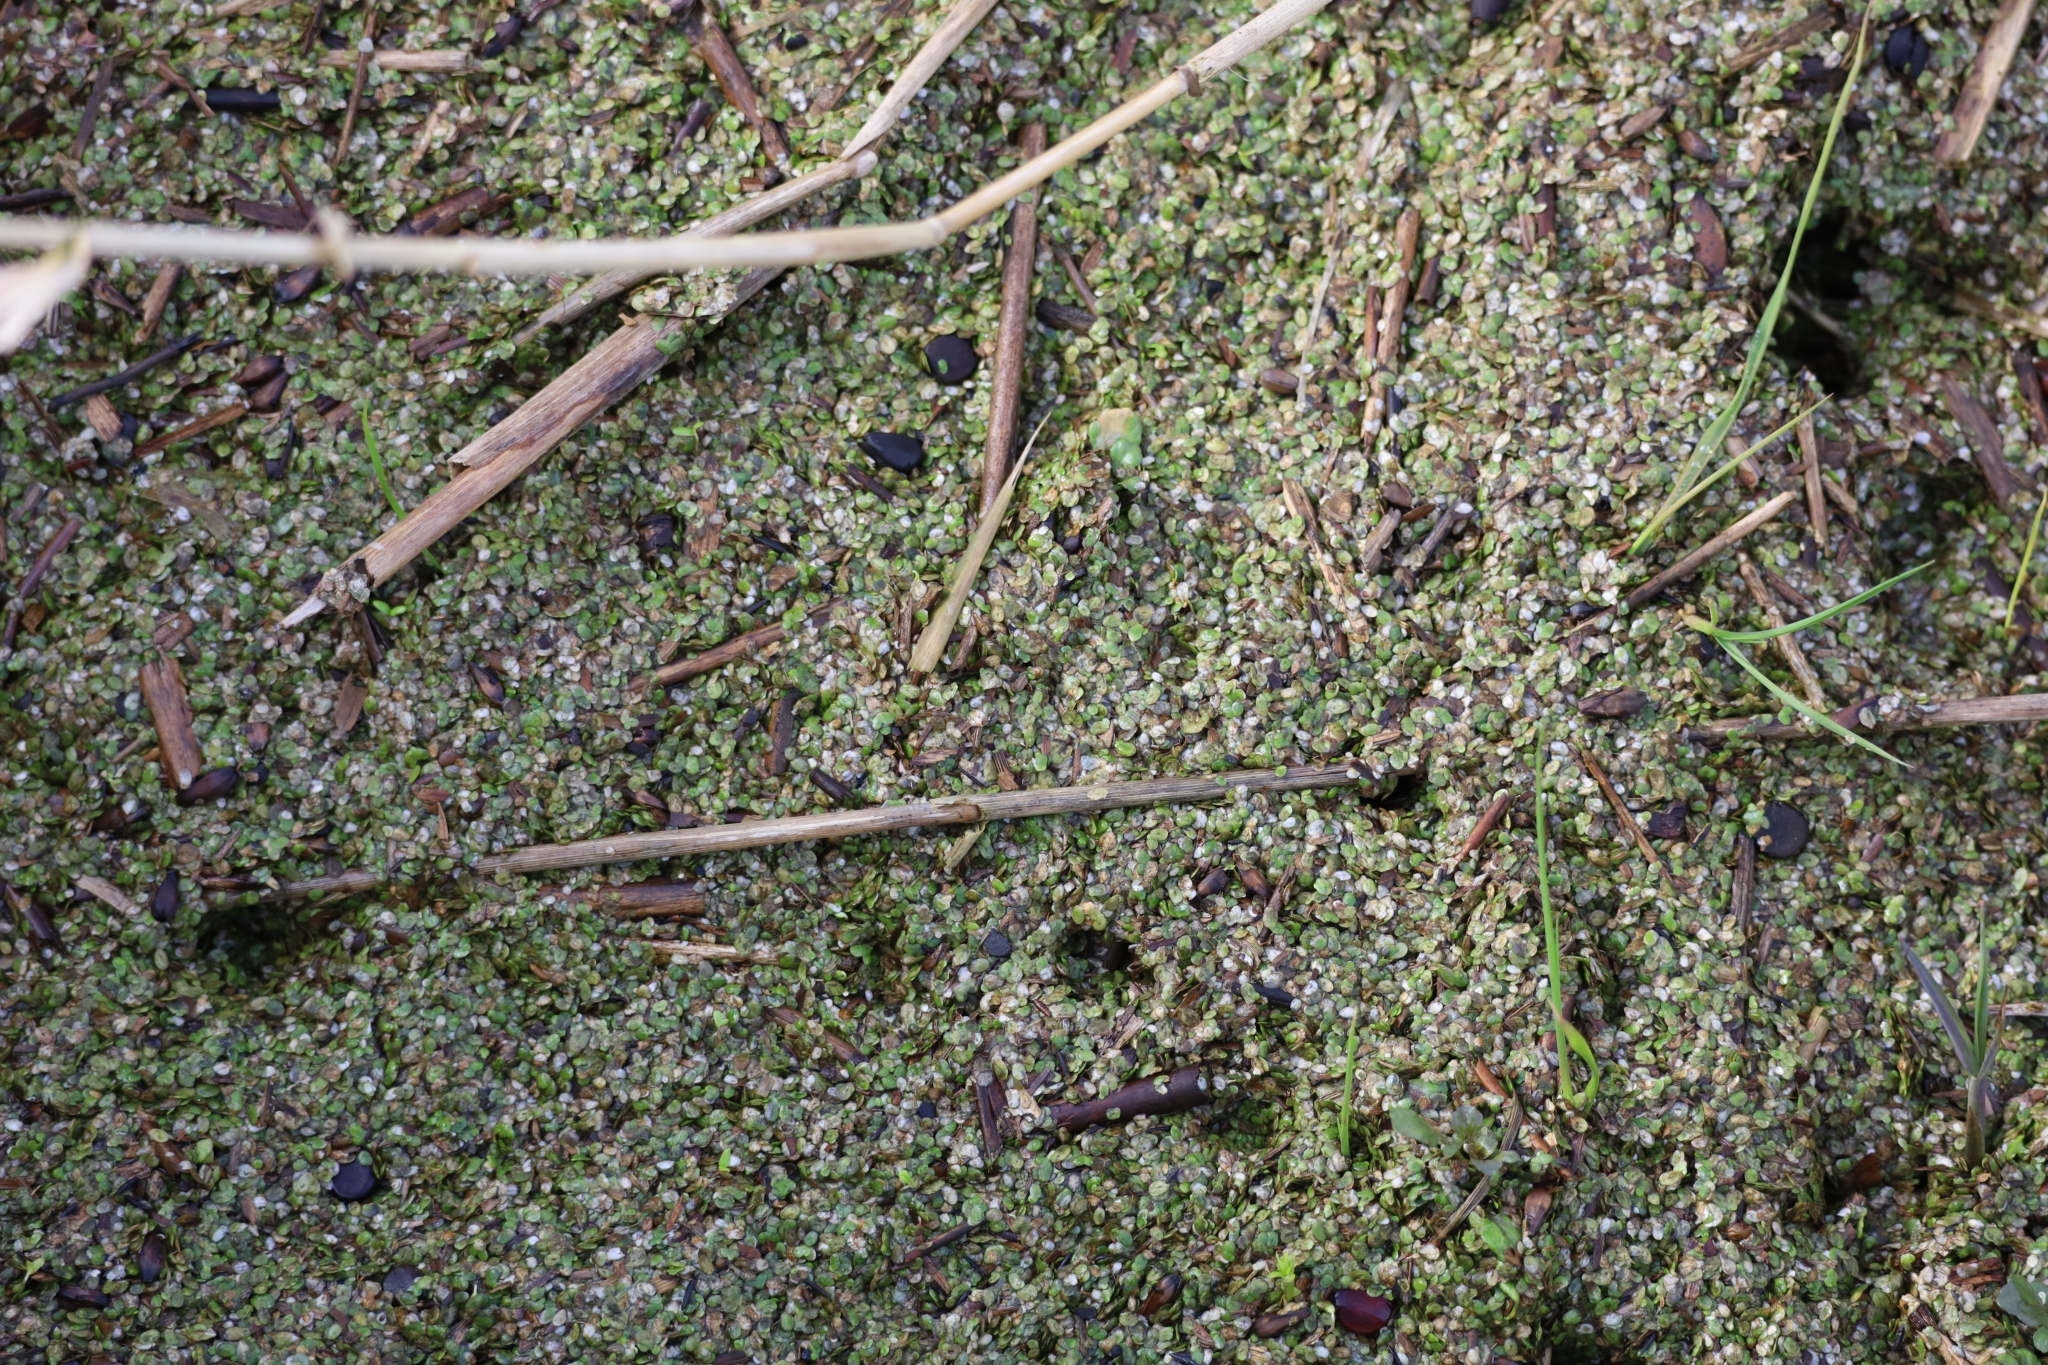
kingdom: Plantae
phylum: Tracheophyta
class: Liliopsida
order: Alismatales
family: Araceae
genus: Lemna
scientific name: Lemna minor
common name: Common duckweed
